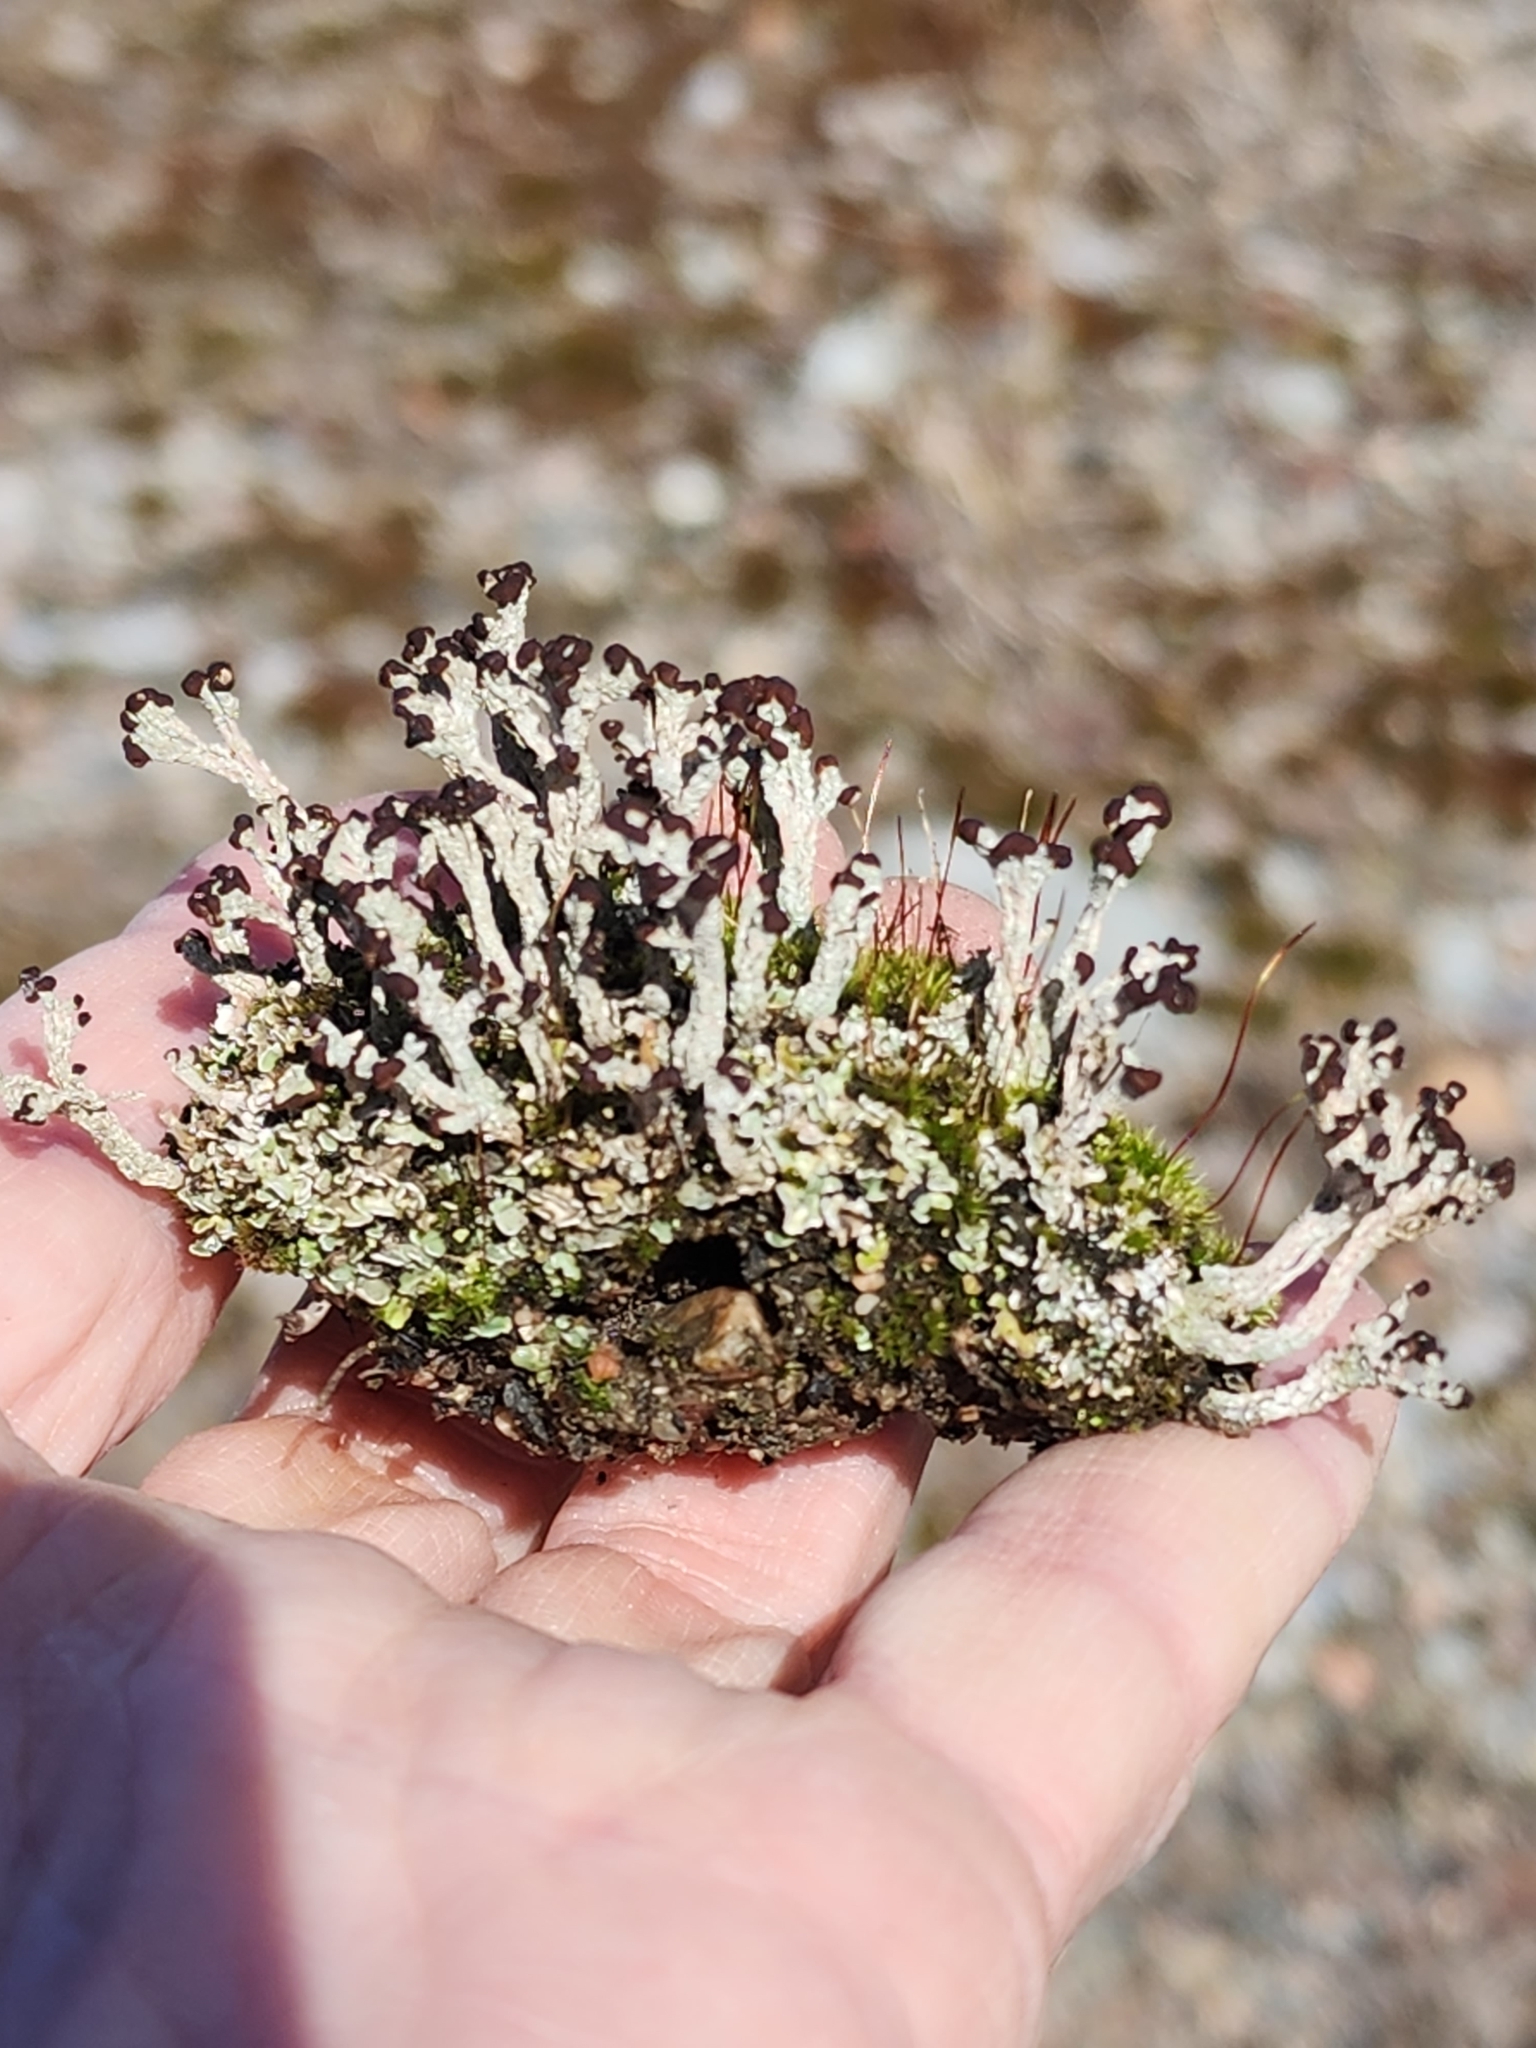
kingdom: Fungi
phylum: Ascomycota
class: Lecanoromycetes
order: Lecanorales
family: Cladoniaceae
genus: Cladonia
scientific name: Cladonia cariosa
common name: Split-peg lichen
